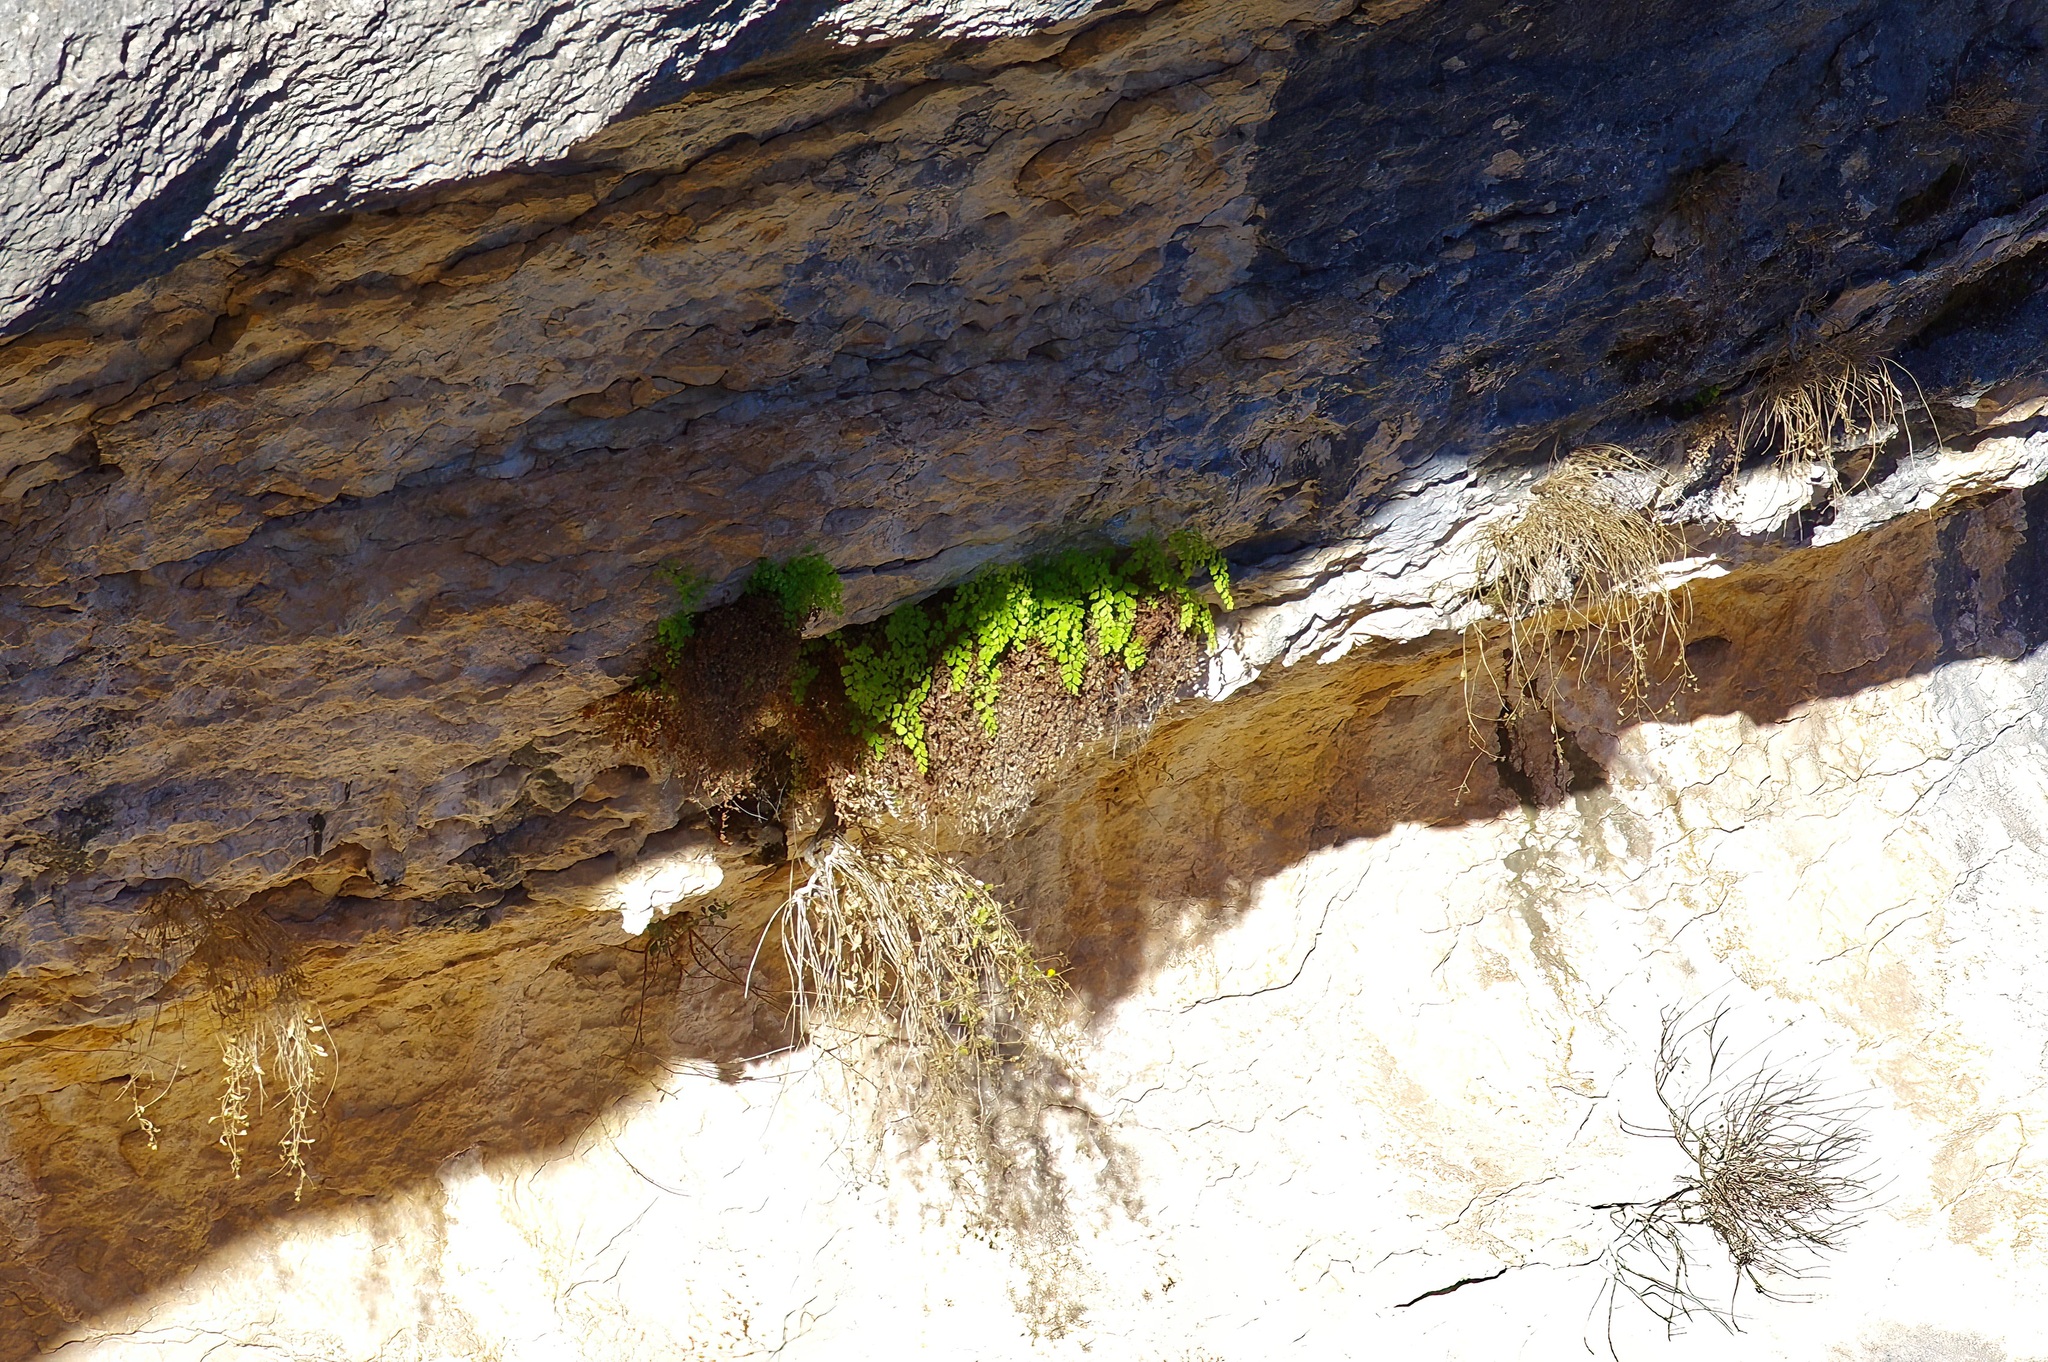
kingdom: Plantae
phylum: Tracheophyta
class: Polypodiopsida
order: Polypodiales
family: Pteridaceae
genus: Adiantum
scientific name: Adiantum capillus-veneris
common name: Maidenhair fern
